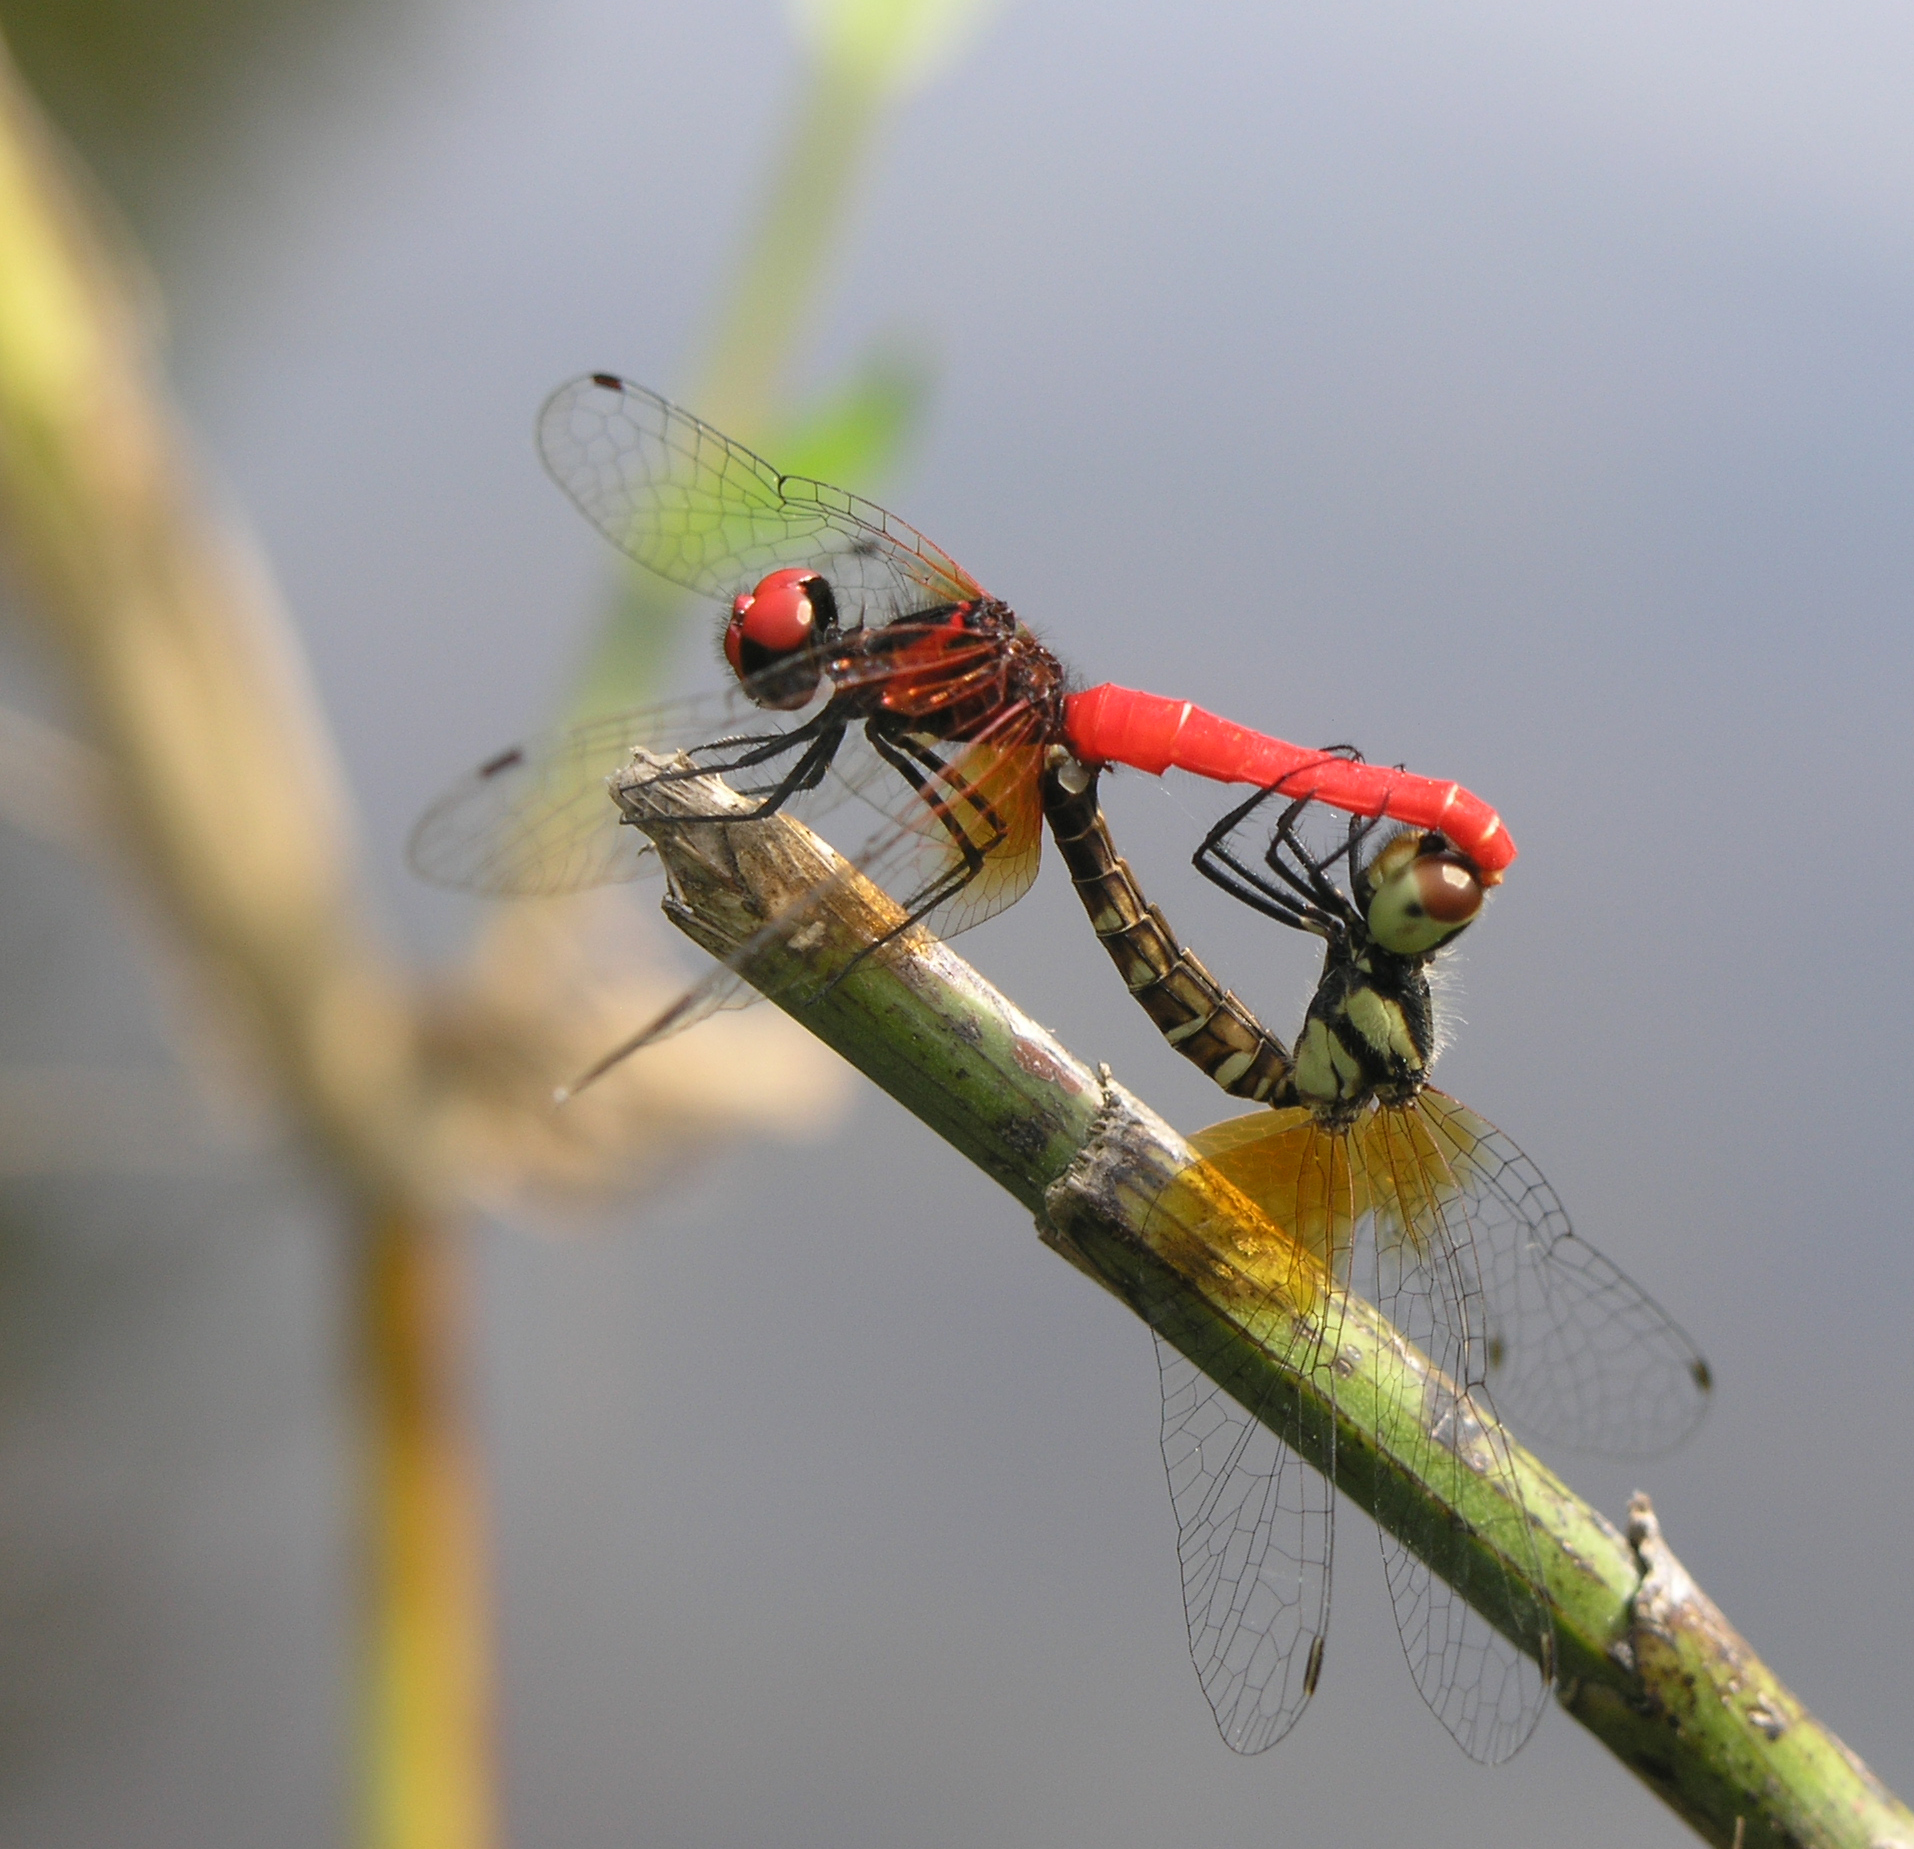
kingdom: Animalia
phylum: Arthropoda
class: Insecta
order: Odonata
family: Libellulidae
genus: Nannophya
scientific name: Nannophya pygmaea
